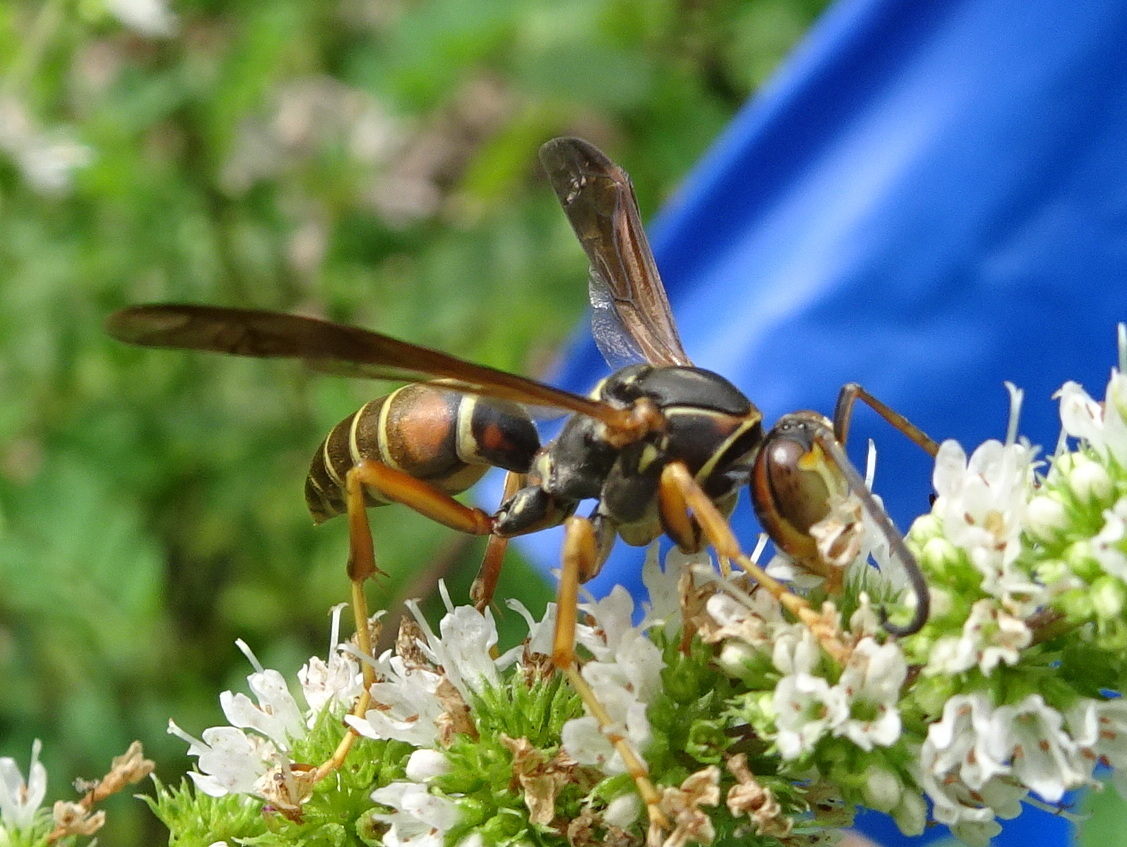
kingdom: Animalia
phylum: Arthropoda
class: Insecta
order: Hymenoptera
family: Eumenidae
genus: Polistes
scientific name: Polistes fuscatus
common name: Dark paper wasp
